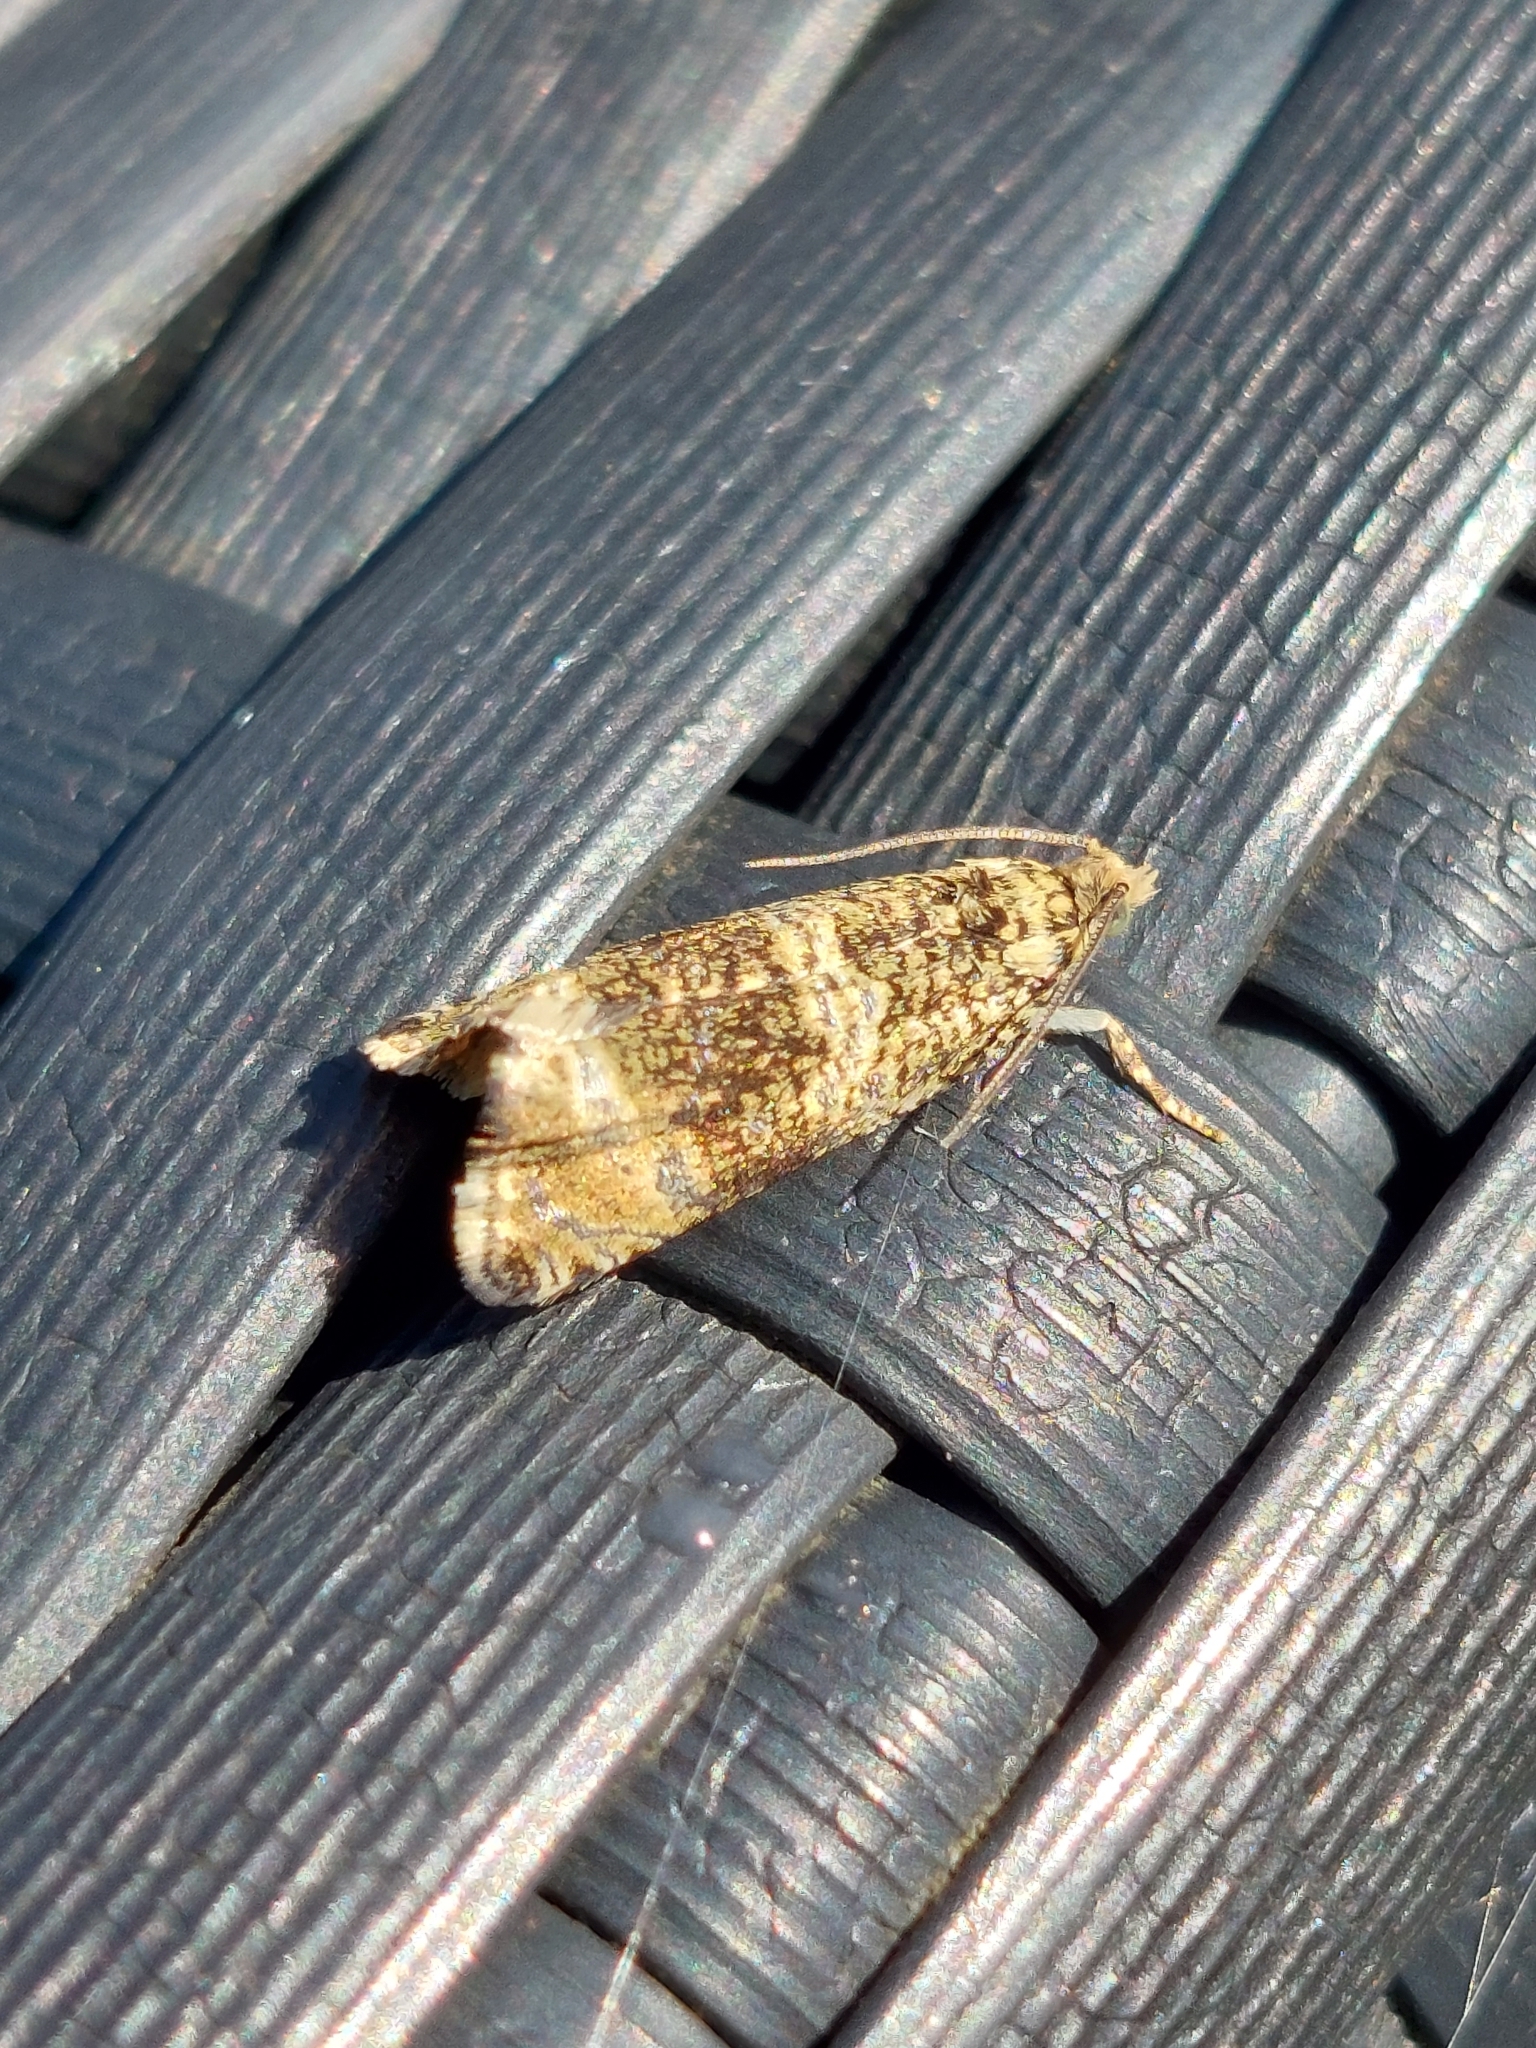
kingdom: Animalia
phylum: Arthropoda
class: Insecta
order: Lepidoptera
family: Tortricidae
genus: Syricoris
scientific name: Syricoris lacunana
